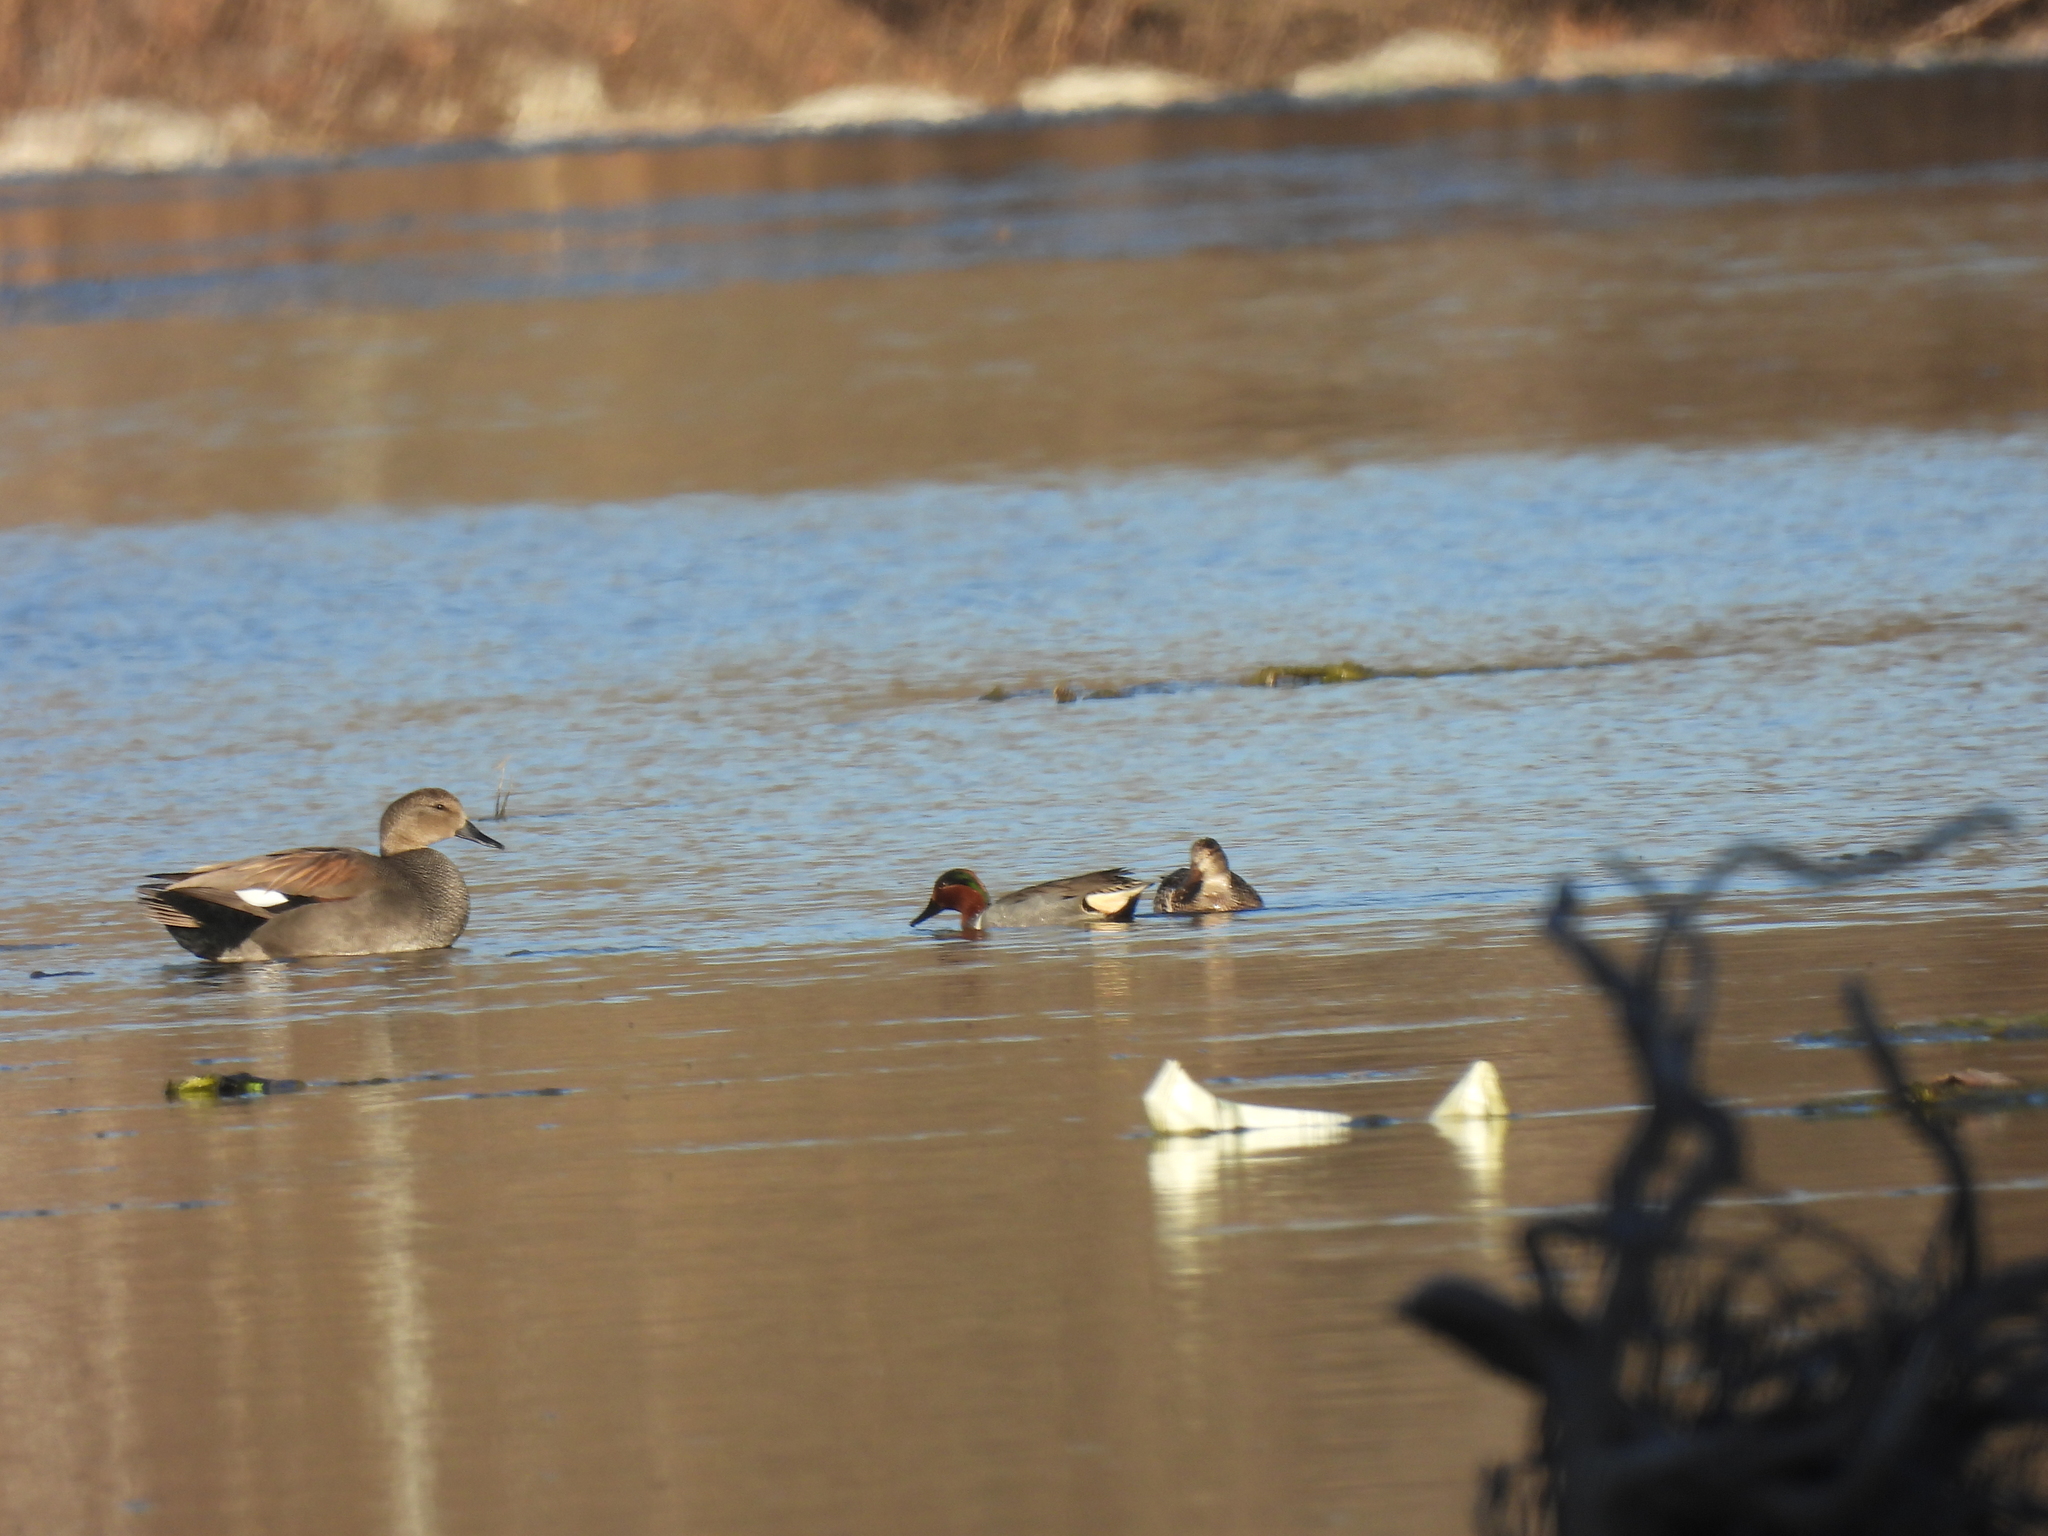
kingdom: Animalia
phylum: Chordata
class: Aves
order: Anseriformes
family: Anatidae
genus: Anas
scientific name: Anas crecca
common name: Eurasian teal
